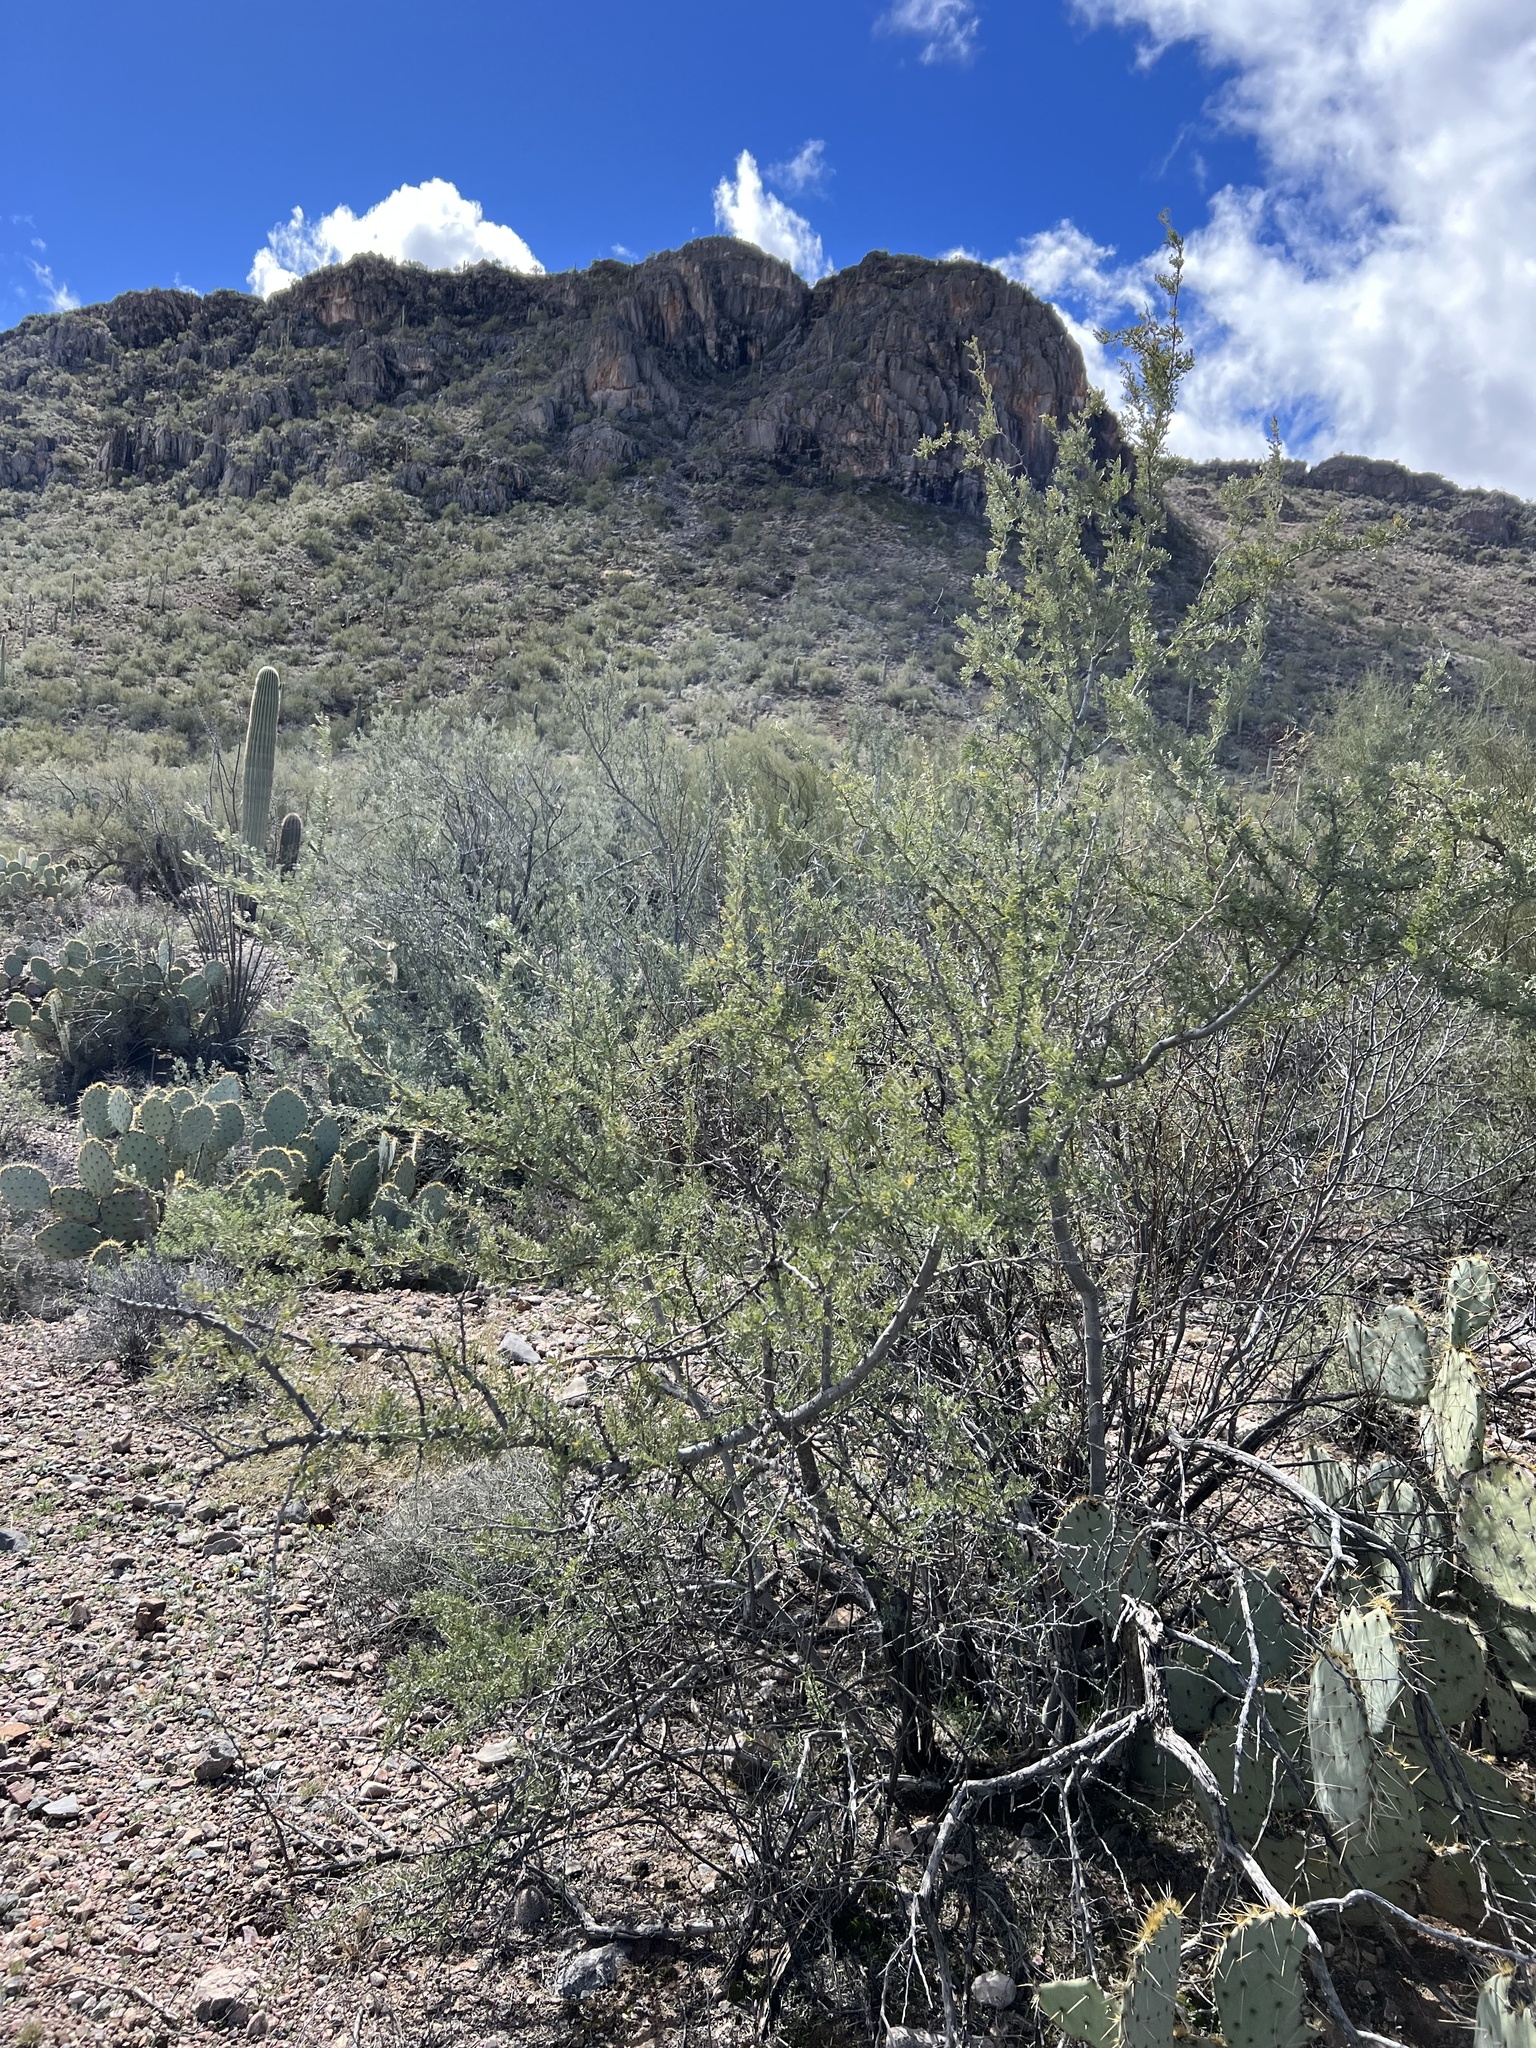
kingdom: Plantae
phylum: Tracheophyta
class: Magnoliopsida
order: Fabales
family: Fabaceae
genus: Olneya
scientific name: Olneya tesota
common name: Desert ironwood
